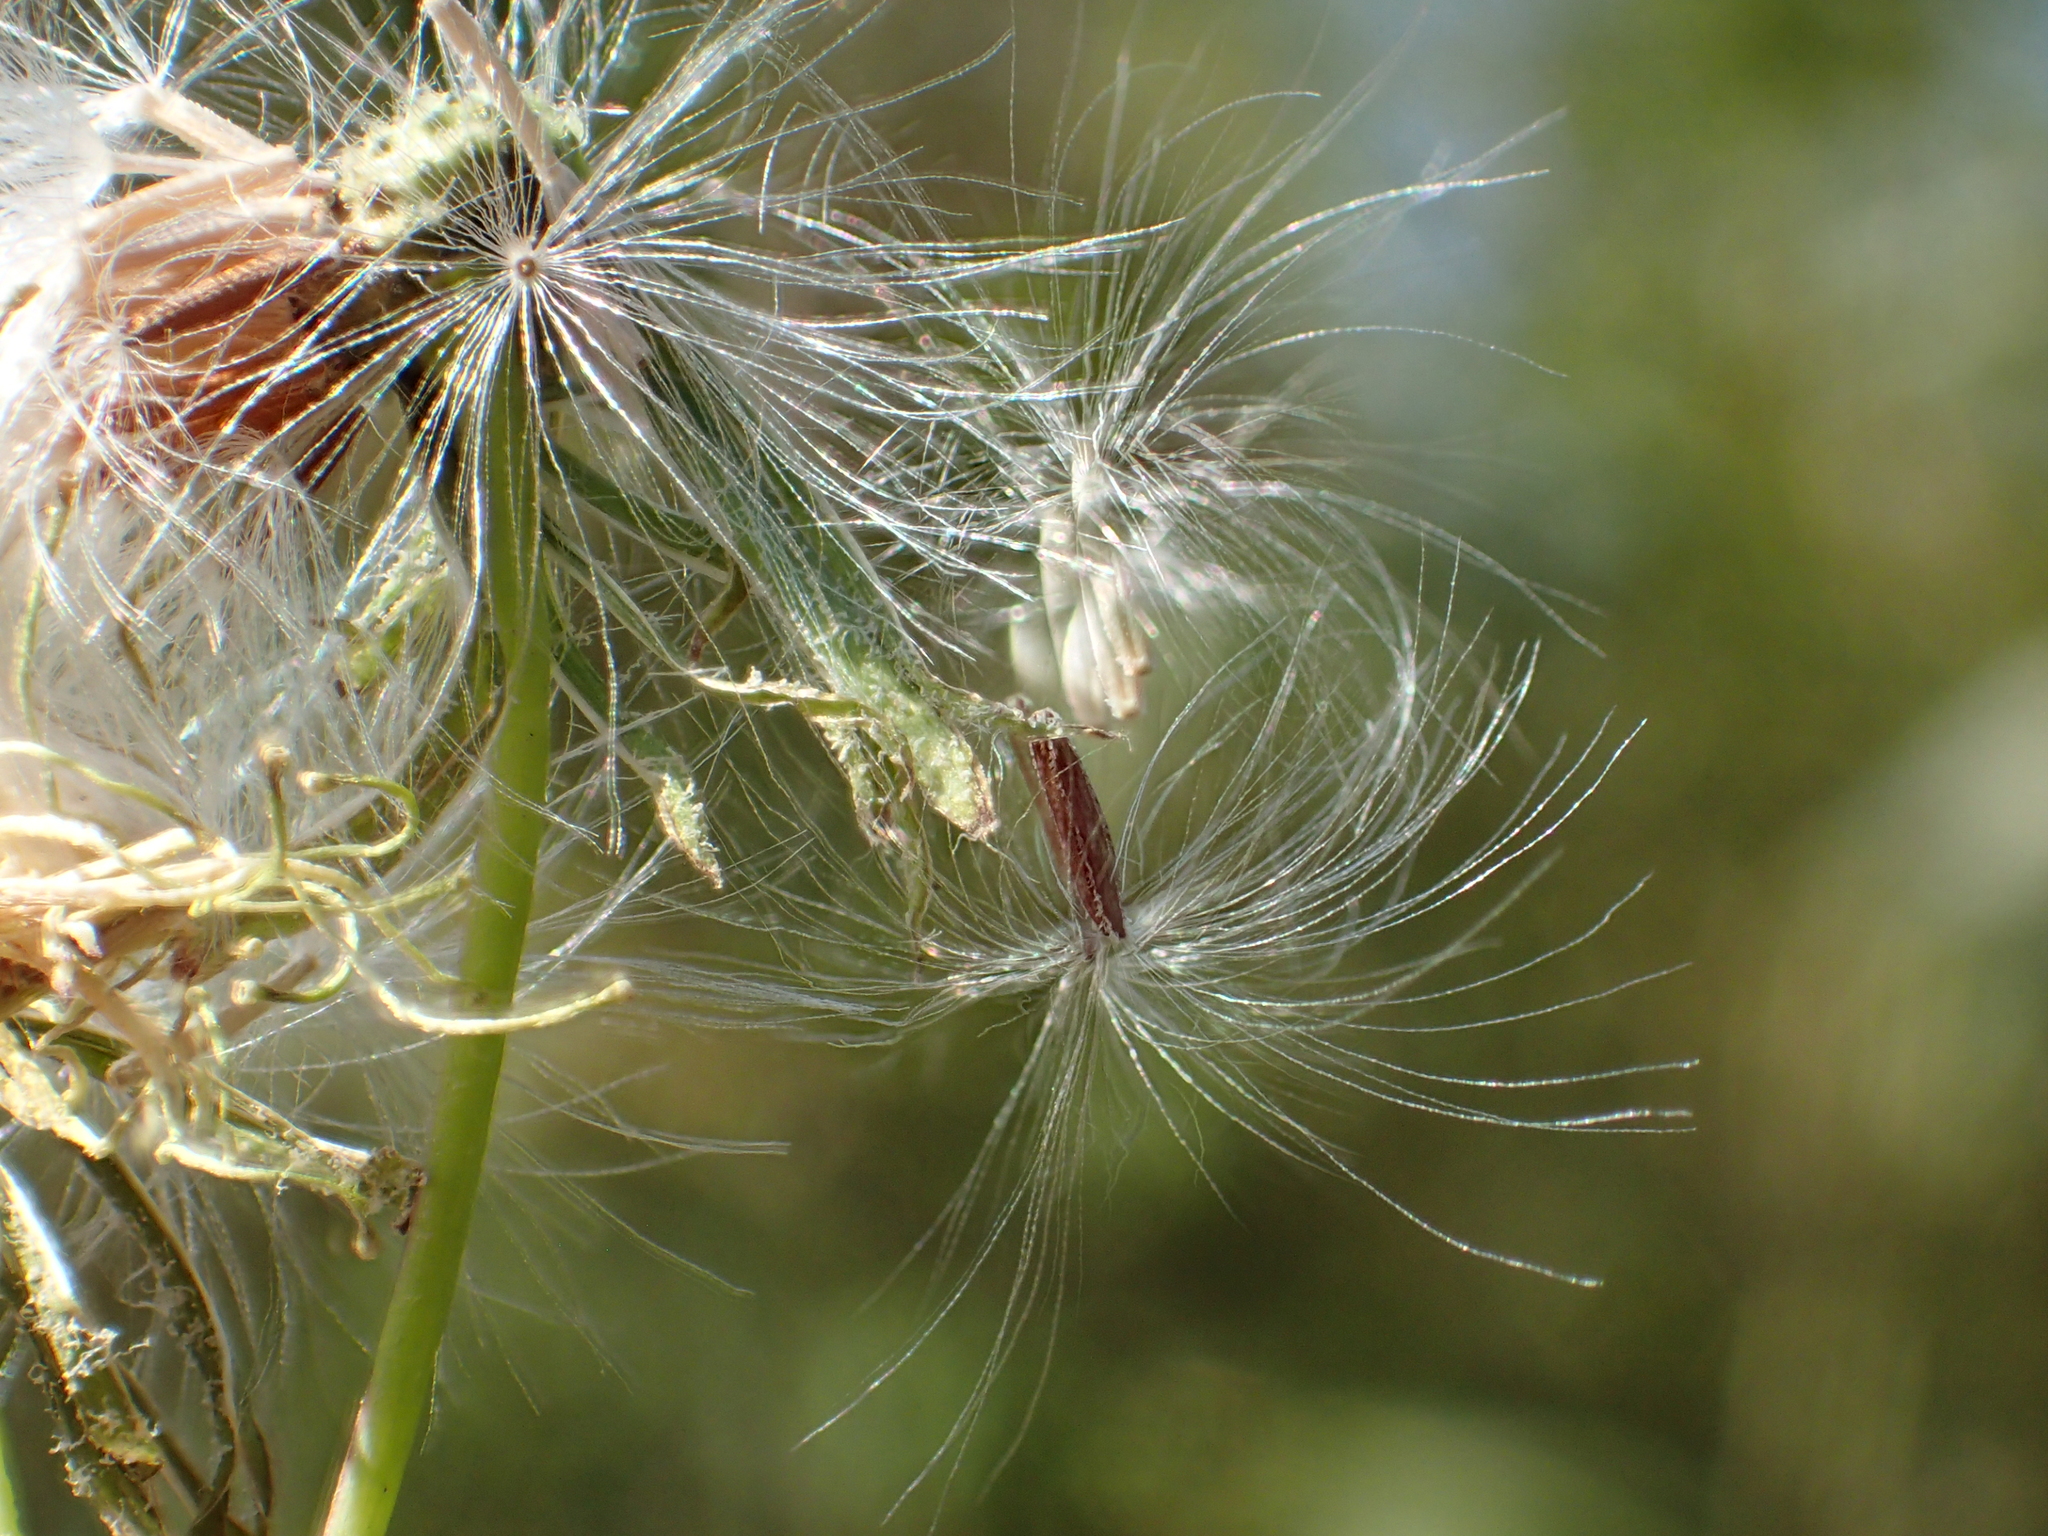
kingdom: Plantae
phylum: Tracheophyta
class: Magnoliopsida
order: Asterales
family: Asteraceae
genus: Emilia
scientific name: Emilia praetermissa
